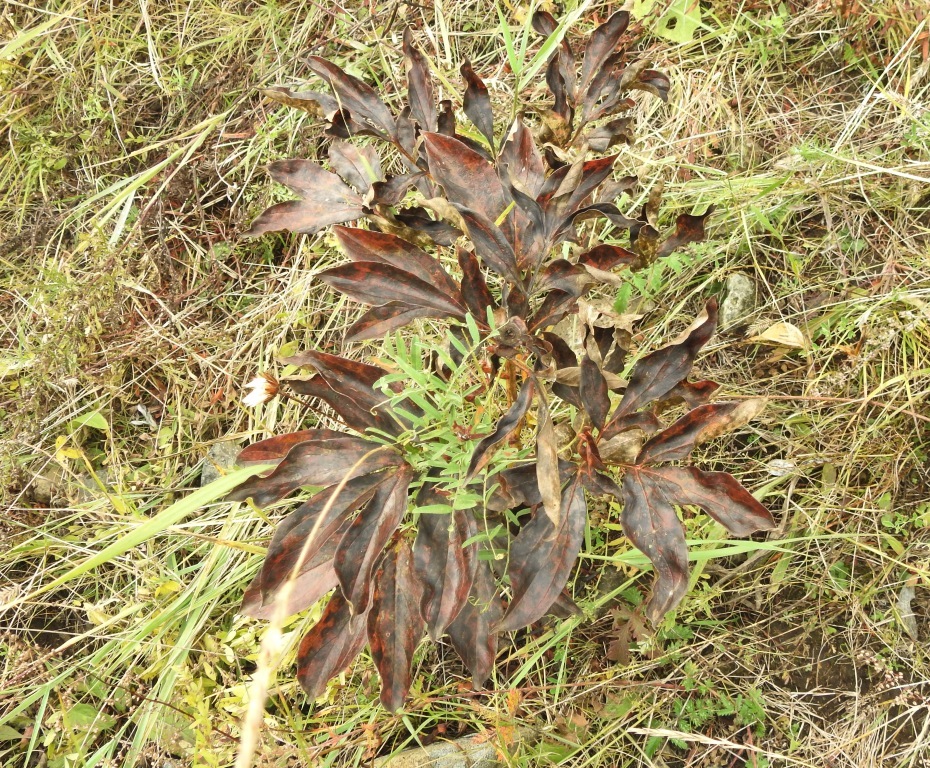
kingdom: Plantae
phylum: Tracheophyta
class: Magnoliopsida
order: Saxifragales
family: Paeoniaceae
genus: Paeonia
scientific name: Paeonia lactiflora
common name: Chinese peony
